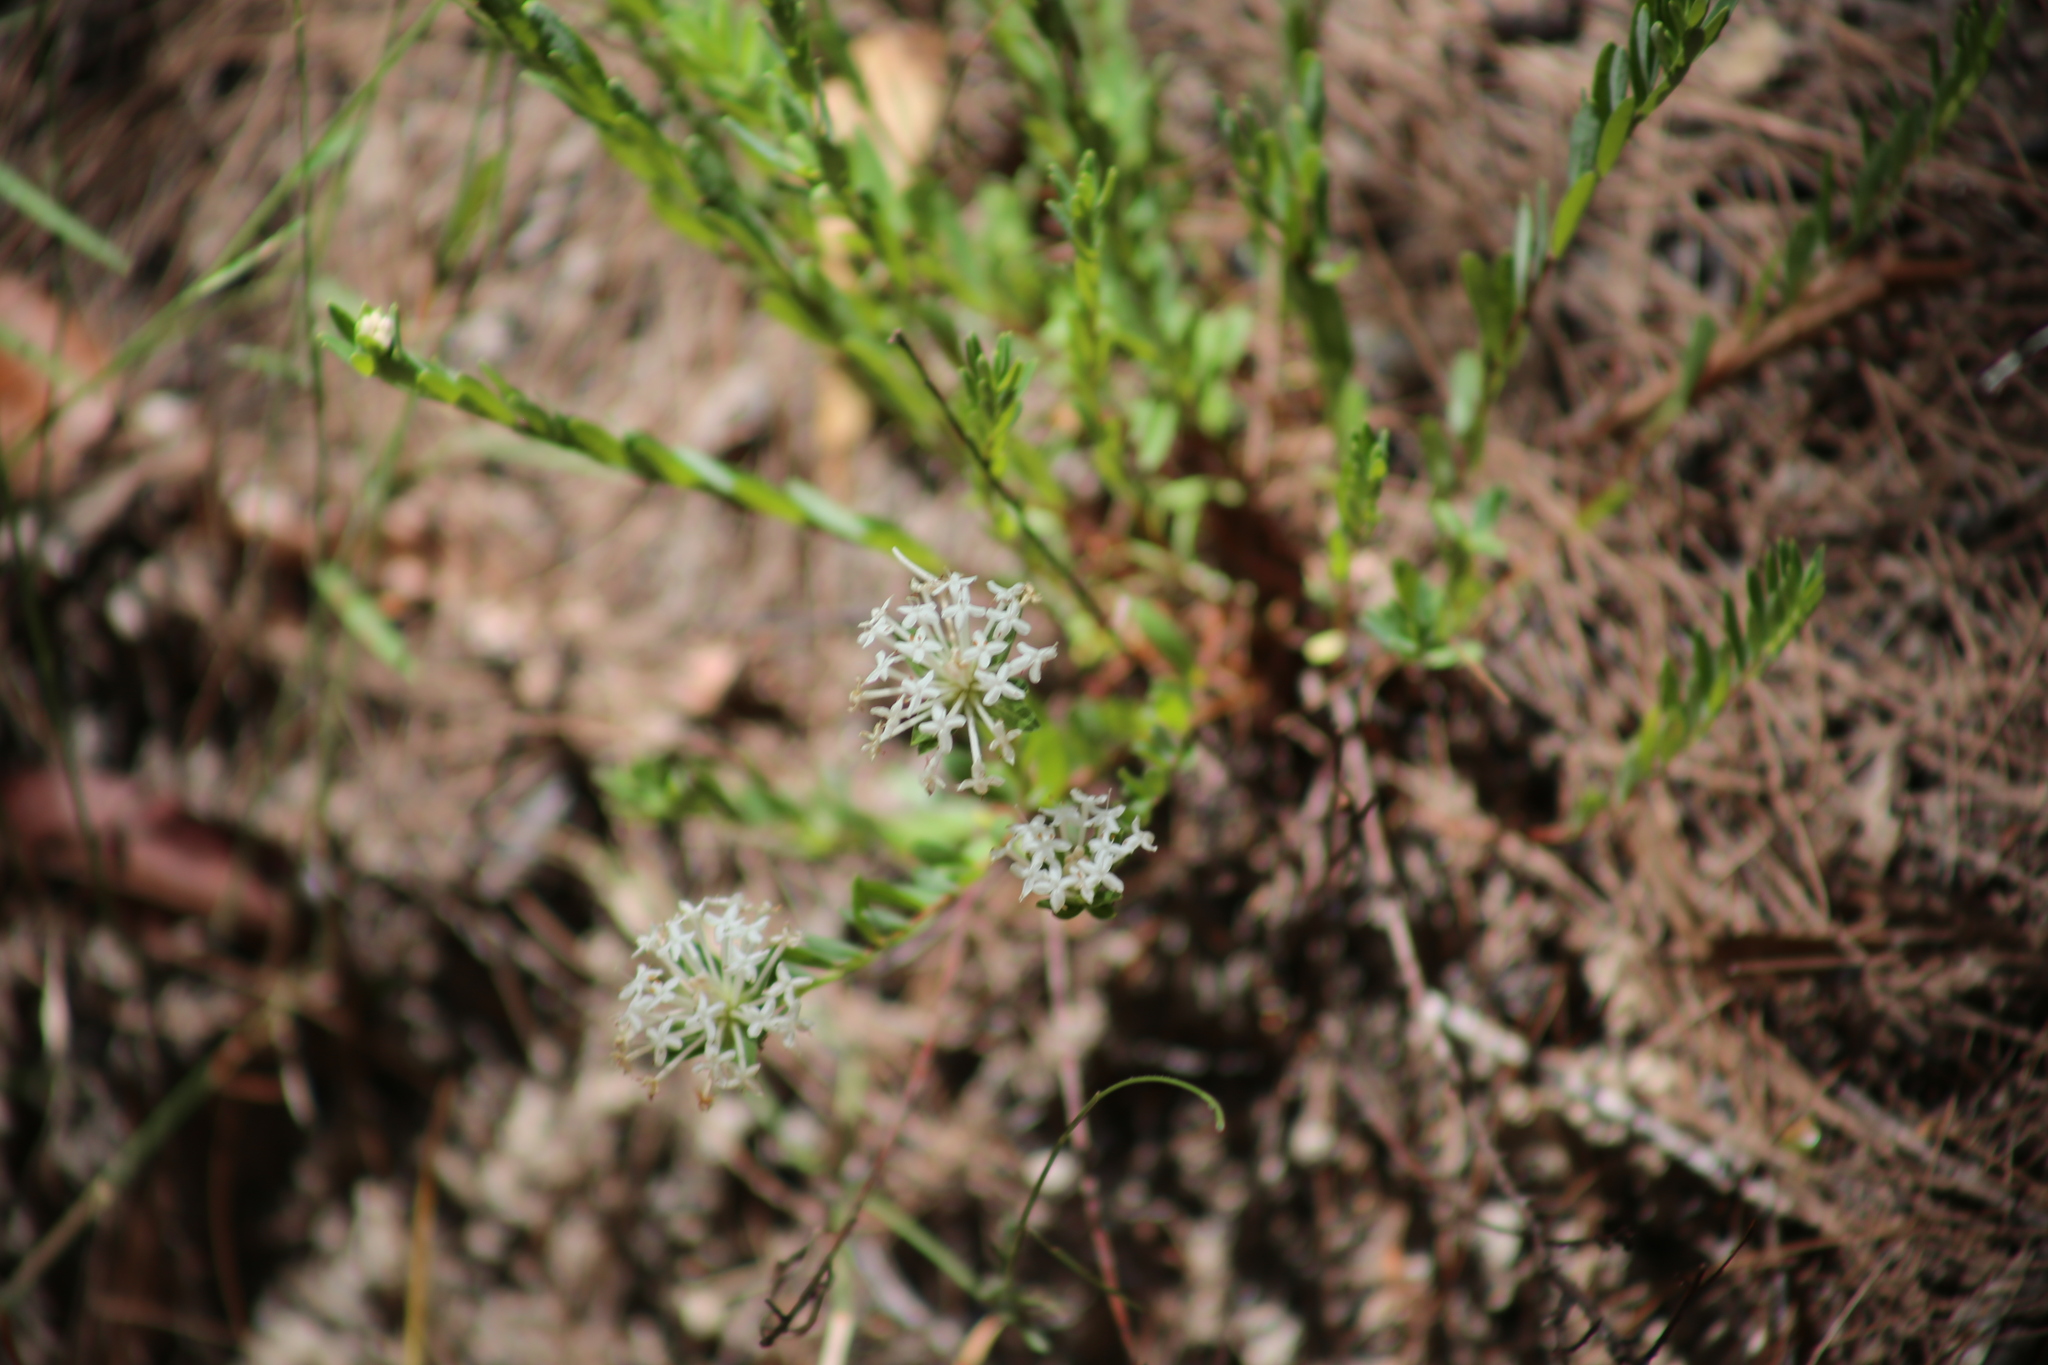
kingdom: Plantae
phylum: Tracheophyta
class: Magnoliopsida
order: Malvales
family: Thymelaeaceae
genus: Pimelea
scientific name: Pimelea linifolia
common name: Queen-of-the-bush
